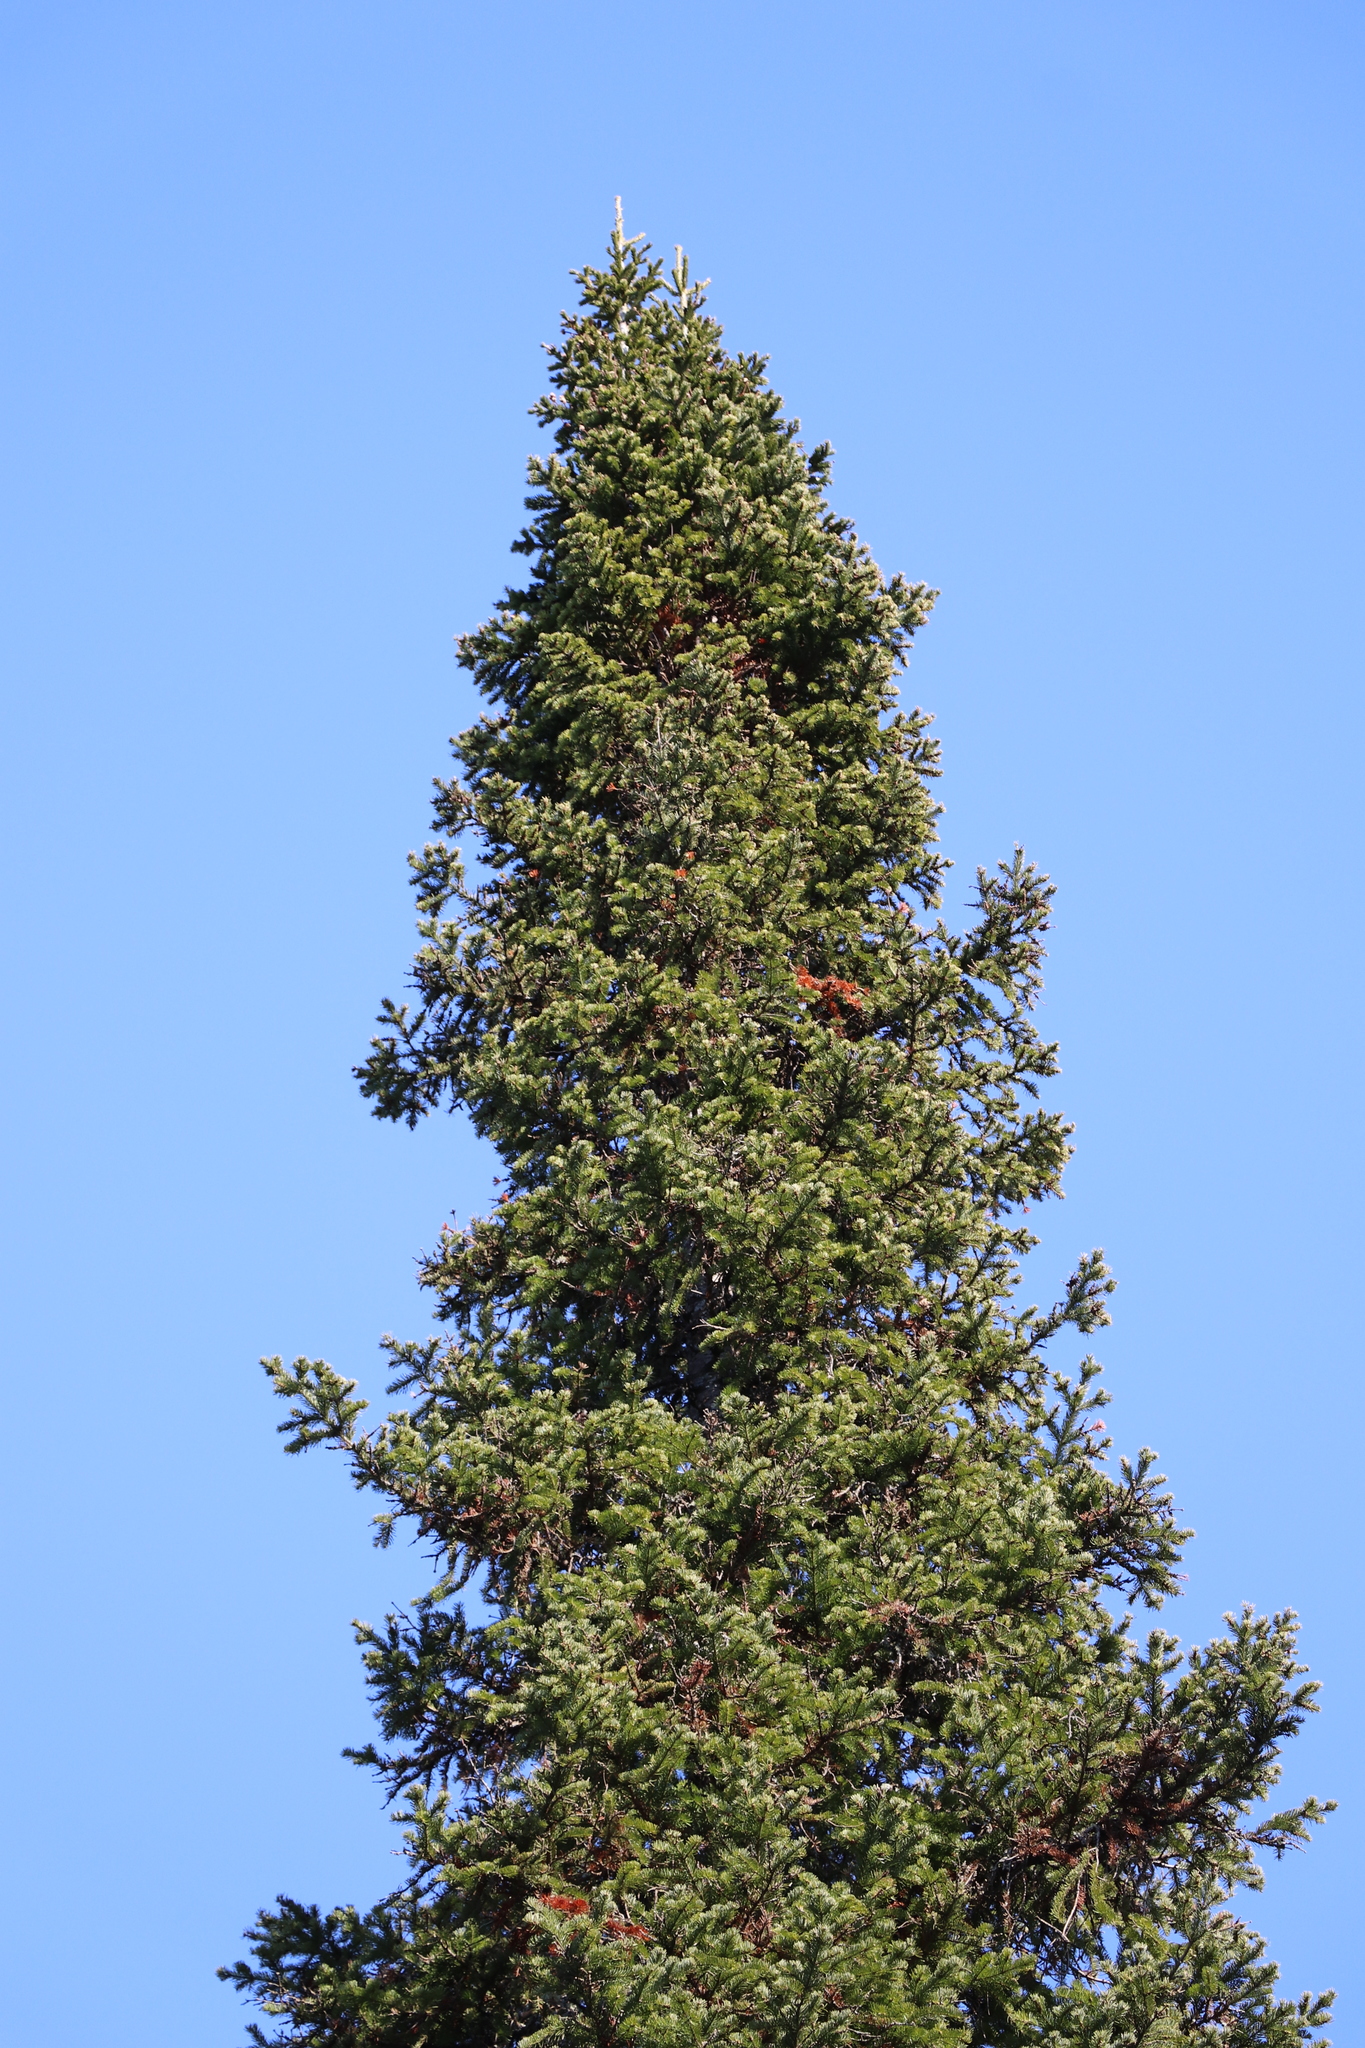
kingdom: Plantae
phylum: Tracheophyta
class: Pinopsida
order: Pinales
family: Pinaceae
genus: Abies
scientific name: Abies sibirica
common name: Siberian fir
